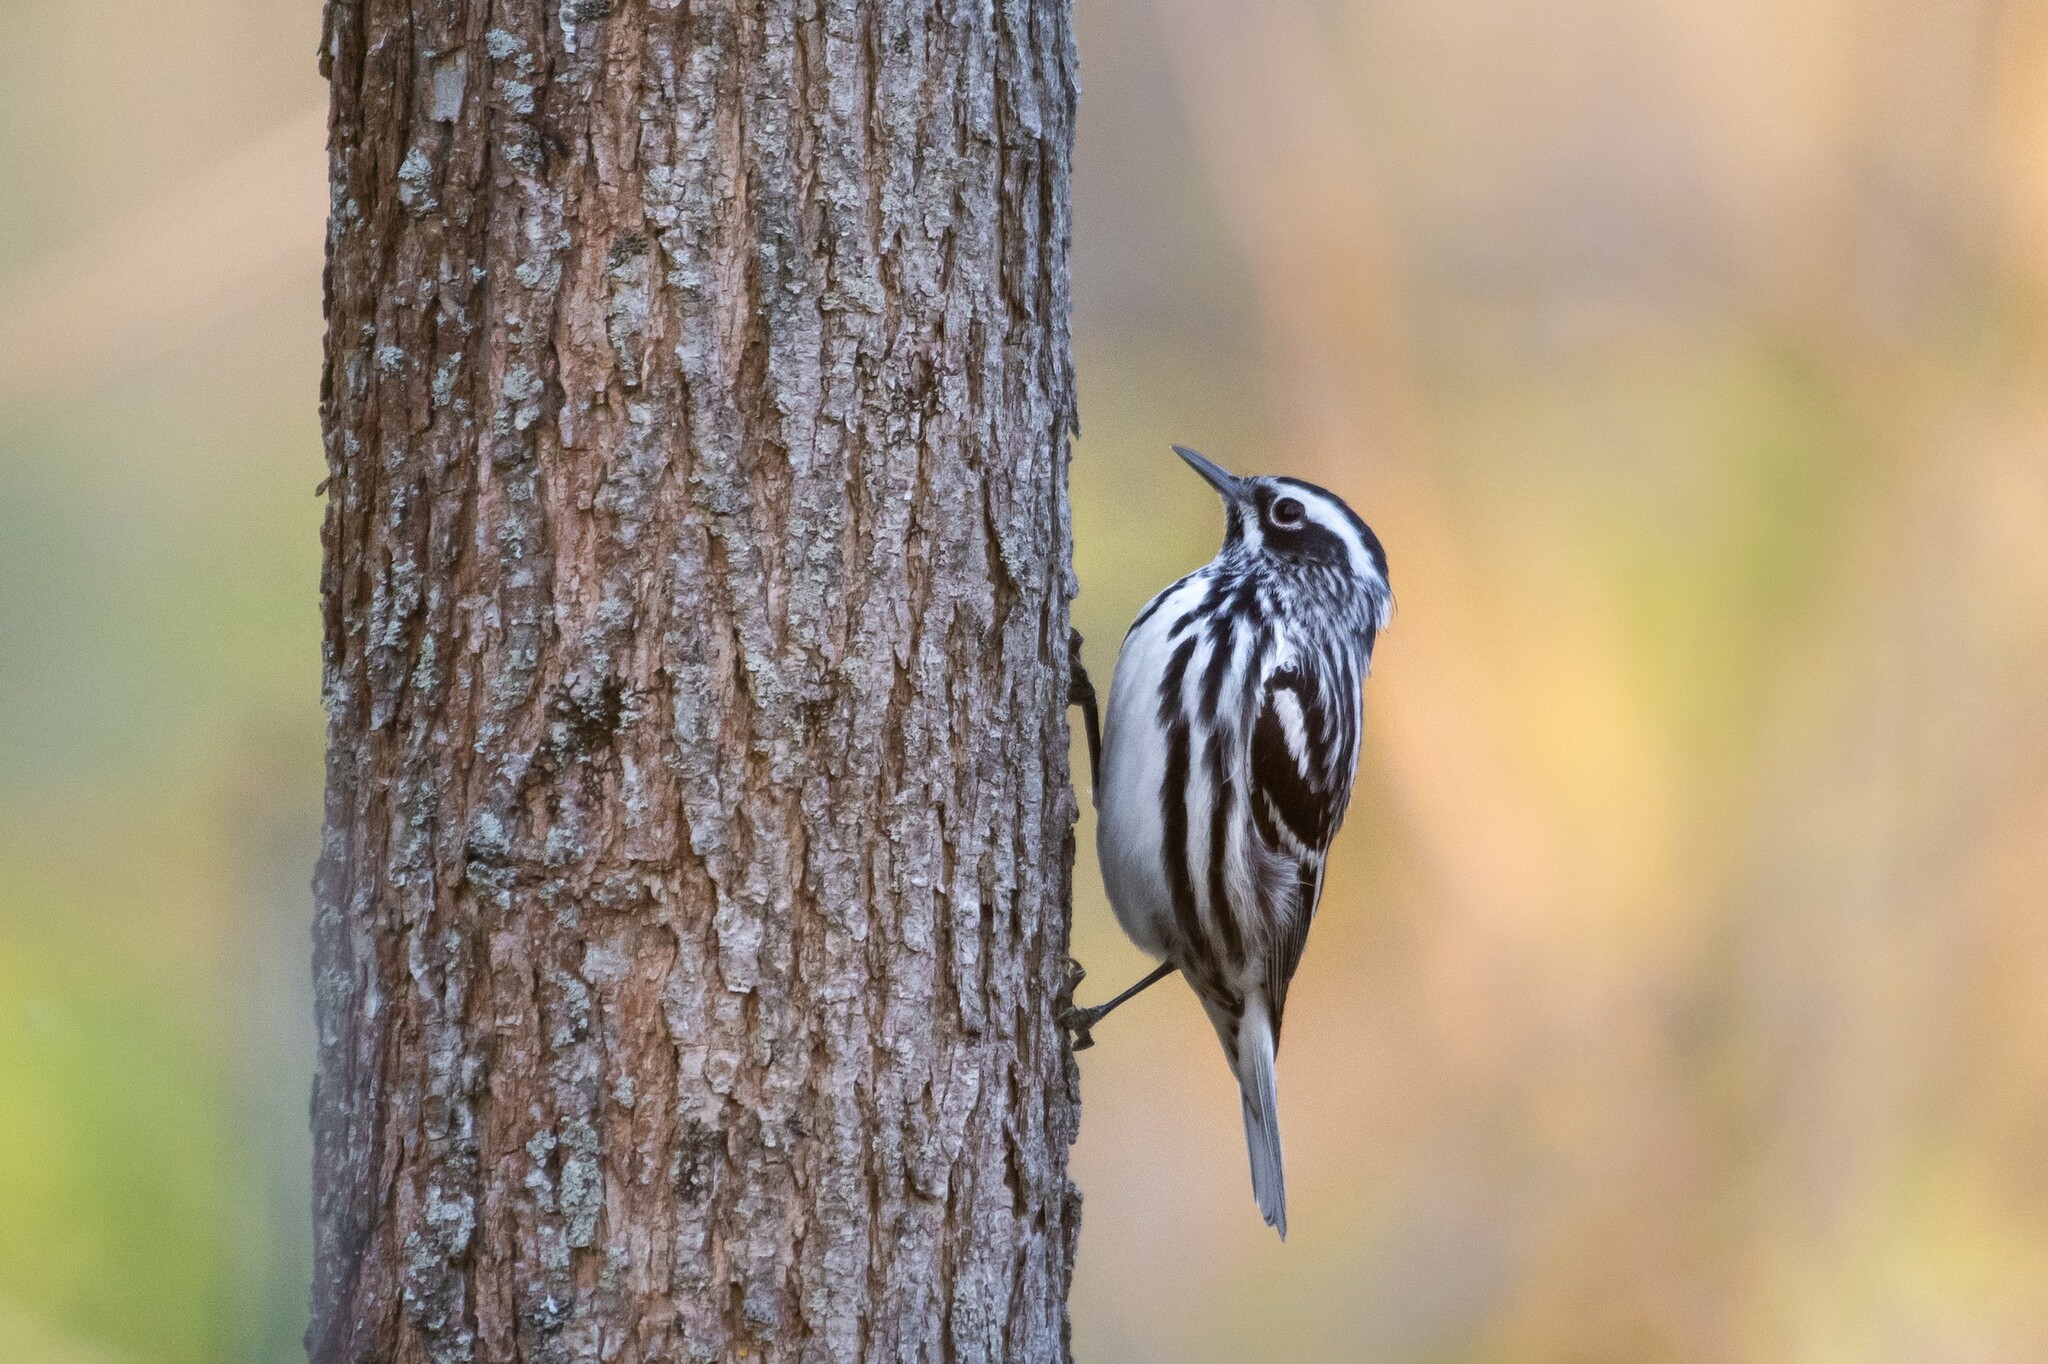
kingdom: Animalia
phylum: Chordata
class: Aves
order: Passeriformes
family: Parulidae
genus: Mniotilta
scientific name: Mniotilta varia
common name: Black-and-white warbler
